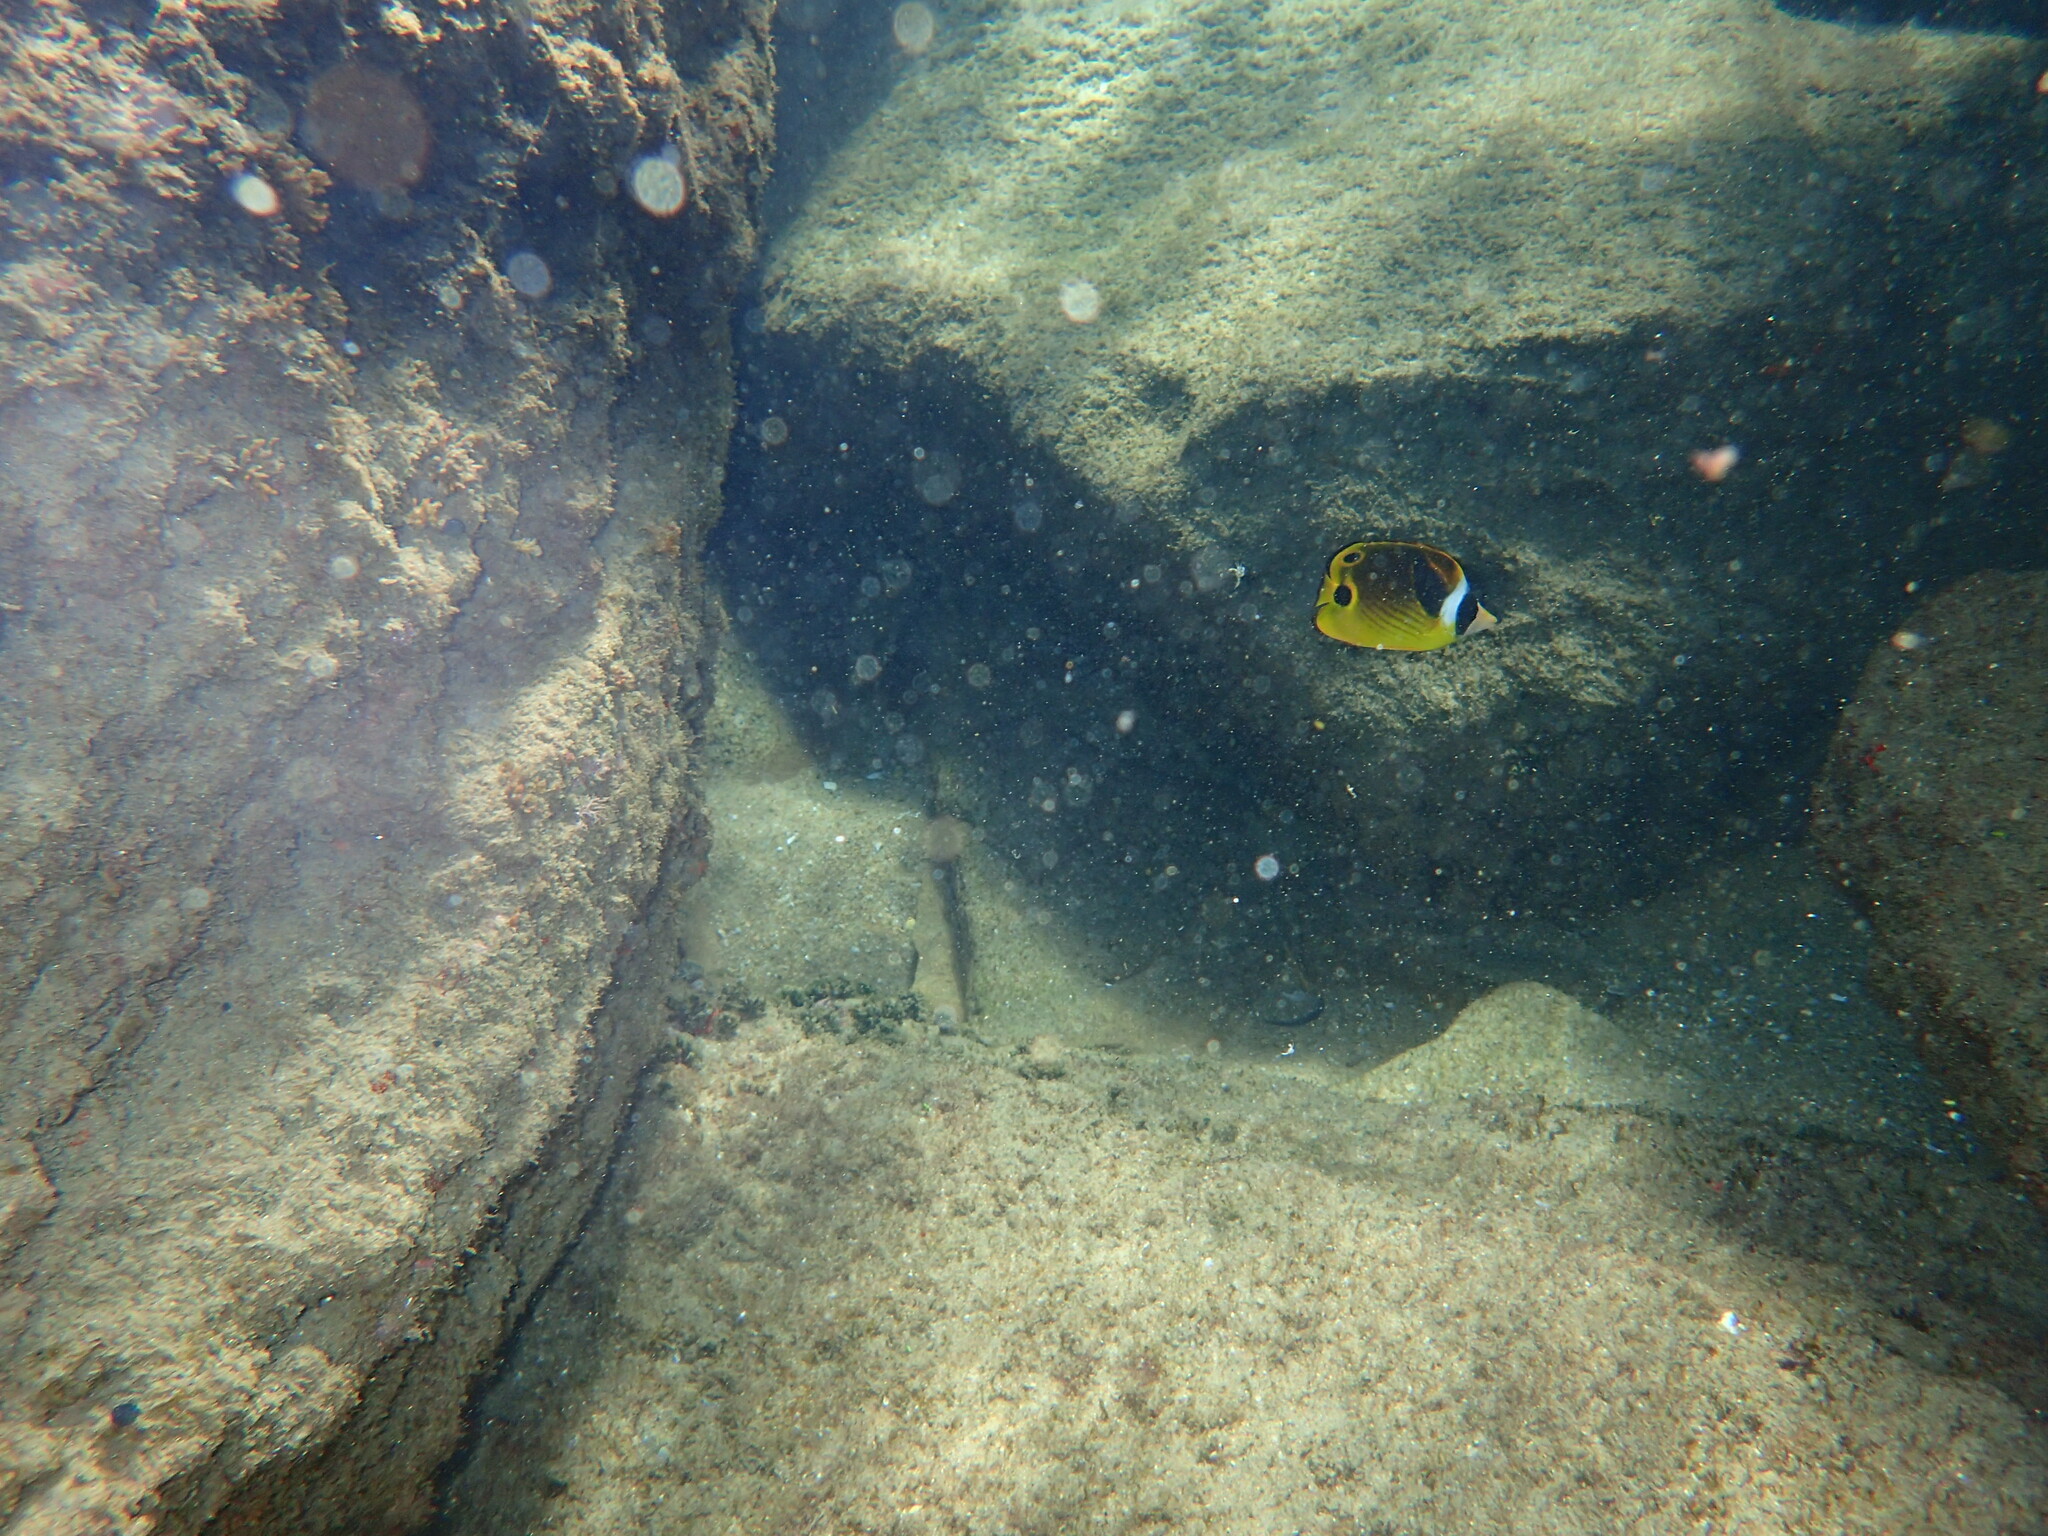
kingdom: Animalia
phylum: Chordata
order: Perciformes
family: Chaetodontidae
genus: Chaetodon
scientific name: Chaetodon lunula
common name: Raccoon butterflyfish
